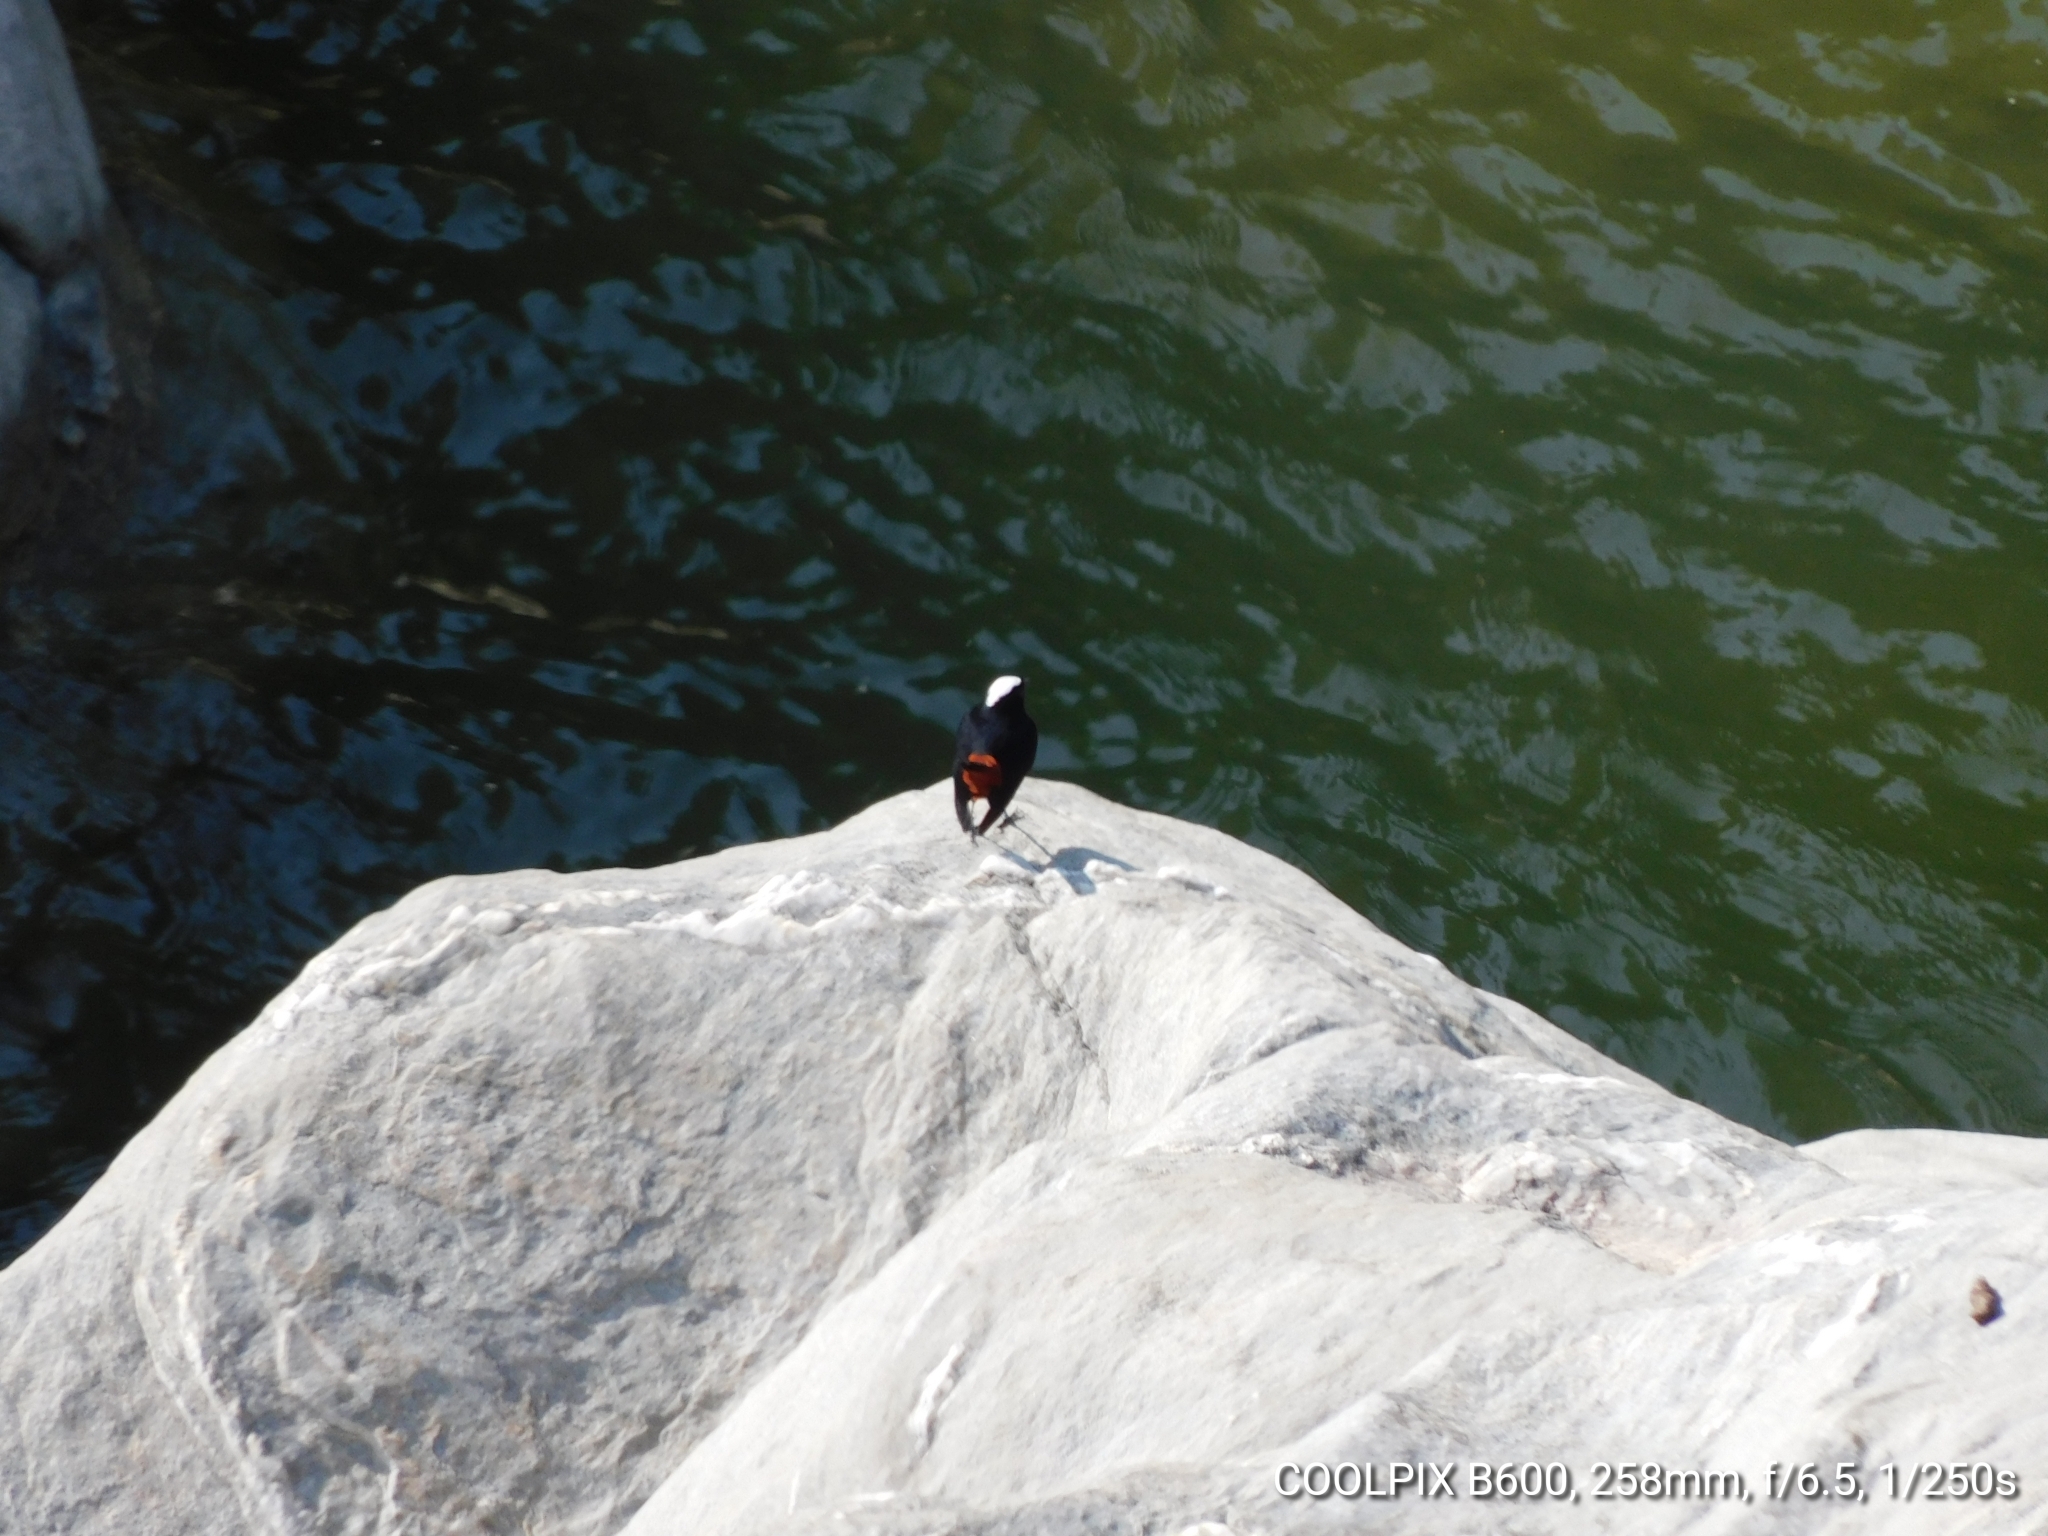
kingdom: Animalia
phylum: Chordata
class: Aves
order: Passeriformes
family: Muscicapidae
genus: Chaimarrornis
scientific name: Chaimarrornis leucocephalus
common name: White-capped redstart
